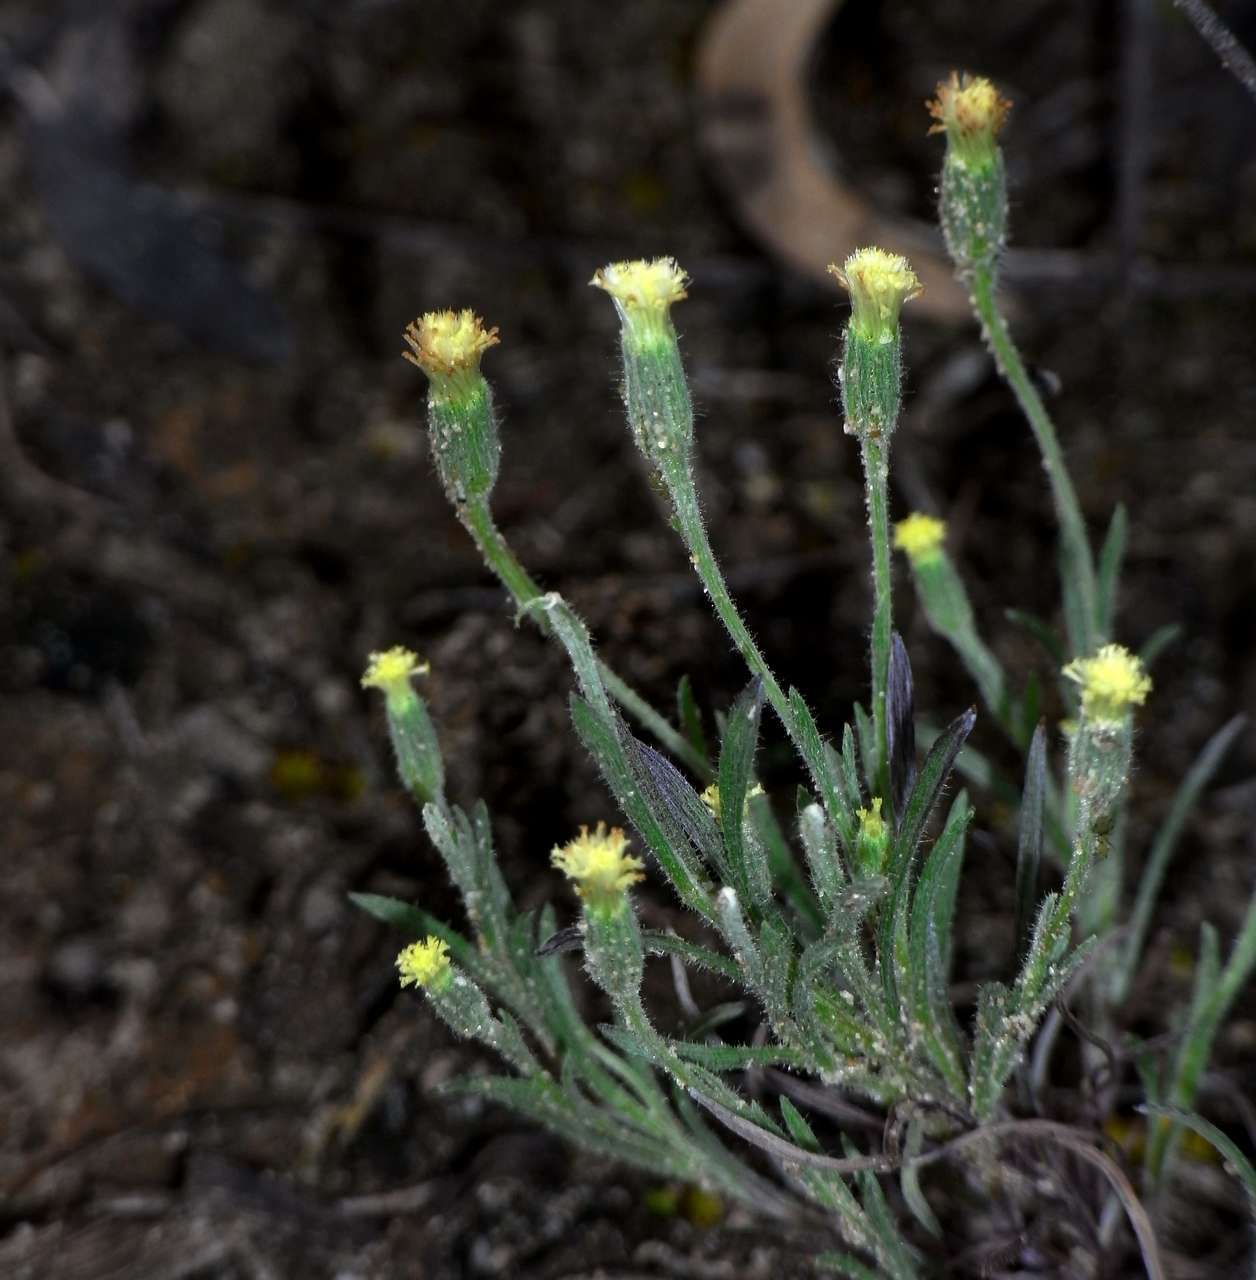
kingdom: Plantae
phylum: Tracheophyta
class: Magnoliopsida
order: Asterales
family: Asteraceae
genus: Millotia
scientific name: Millotia tenuifolia
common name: Soft millotia
